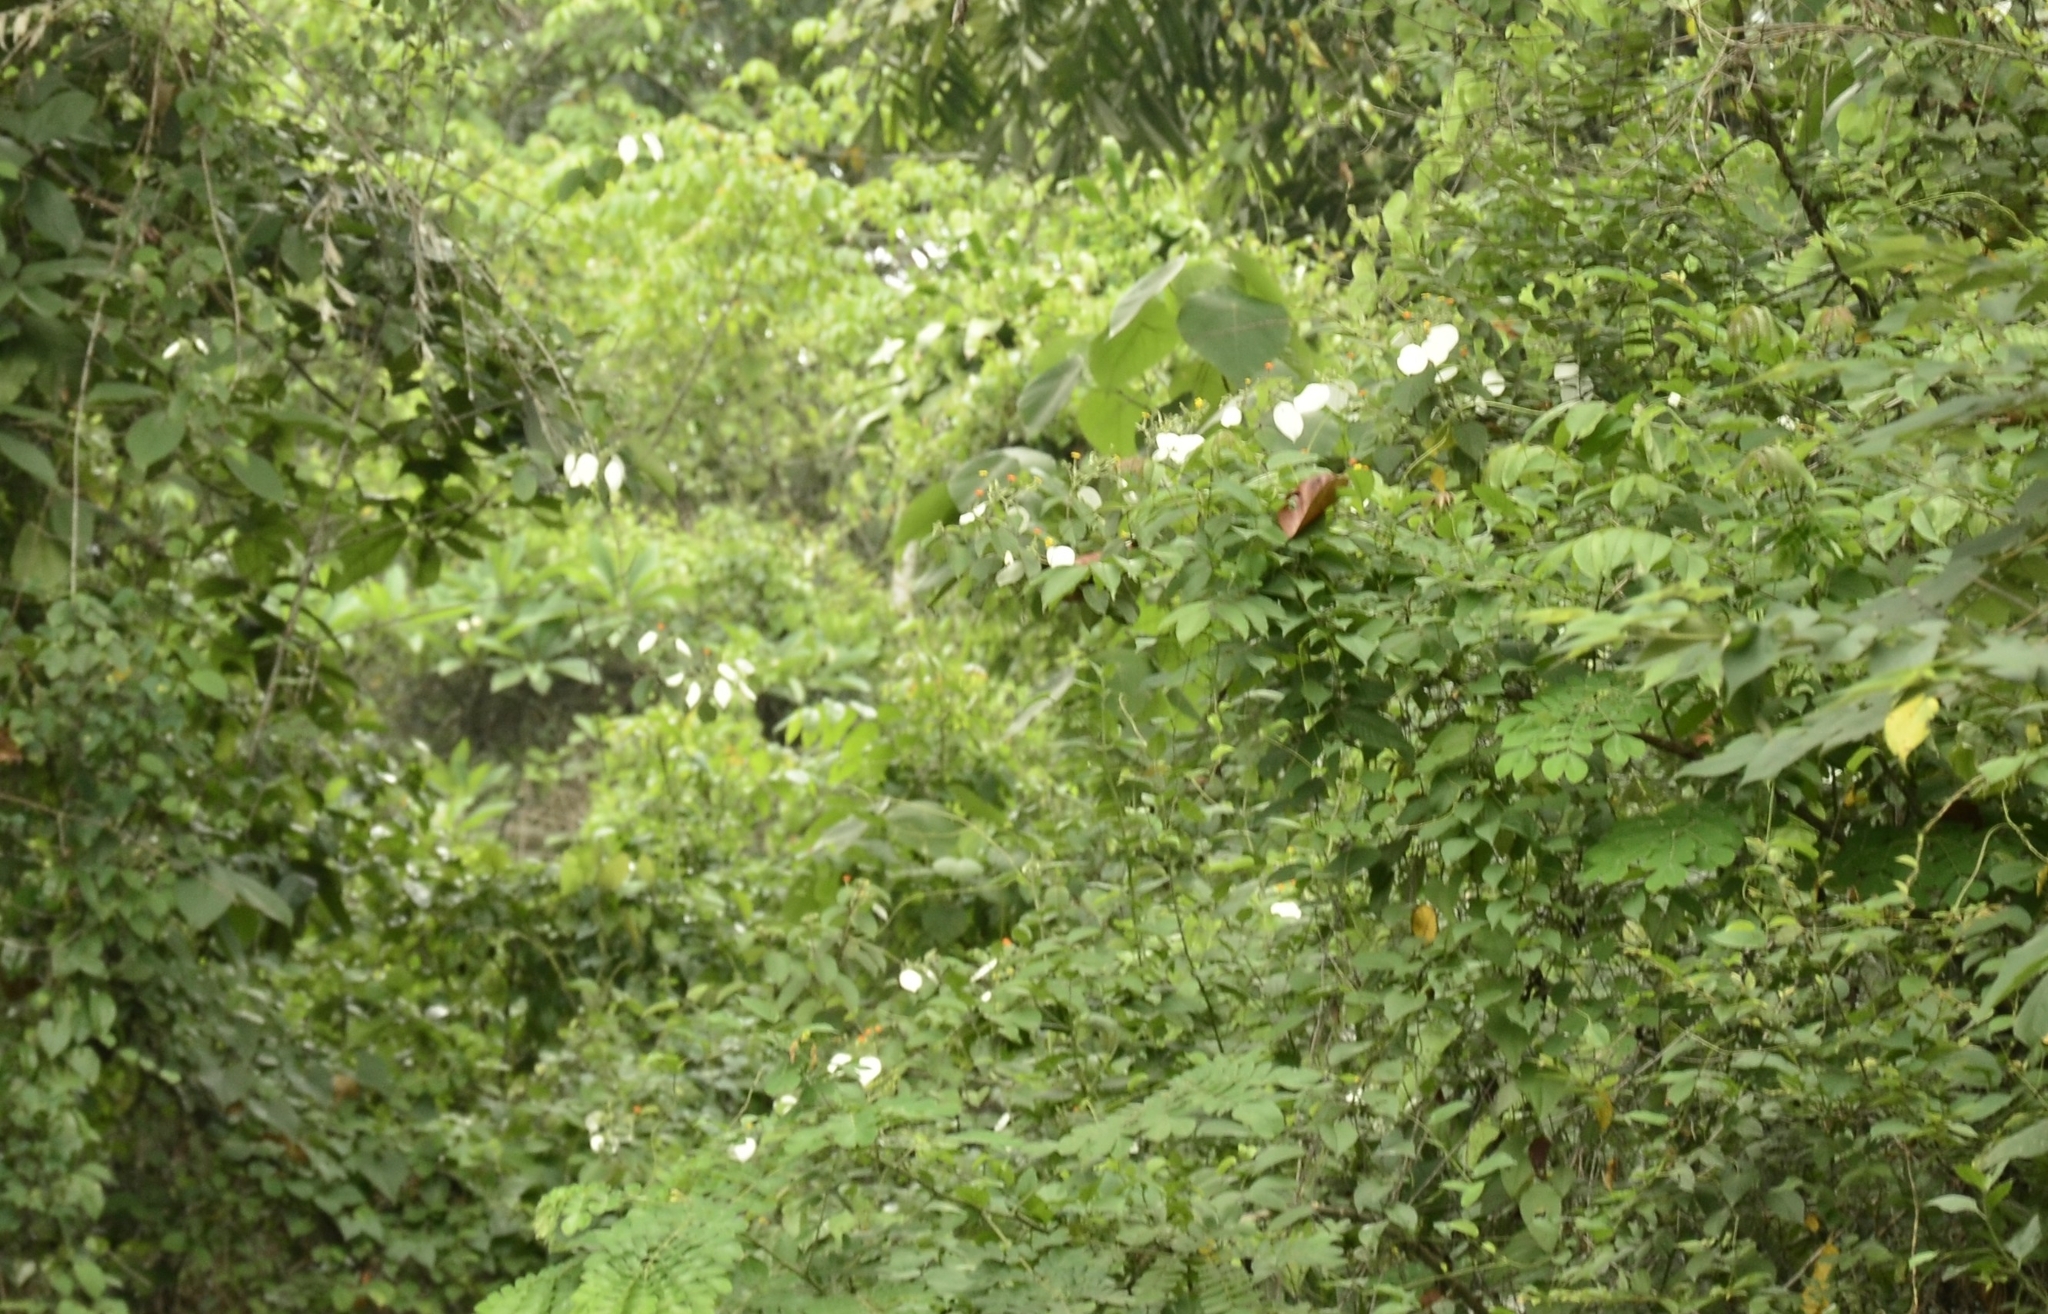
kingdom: Plantae
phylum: Tracheophyta
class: Magnoliopsida
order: Gentianales
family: Rubiaceae
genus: Mussaenda
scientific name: Mussaenda frondosa
